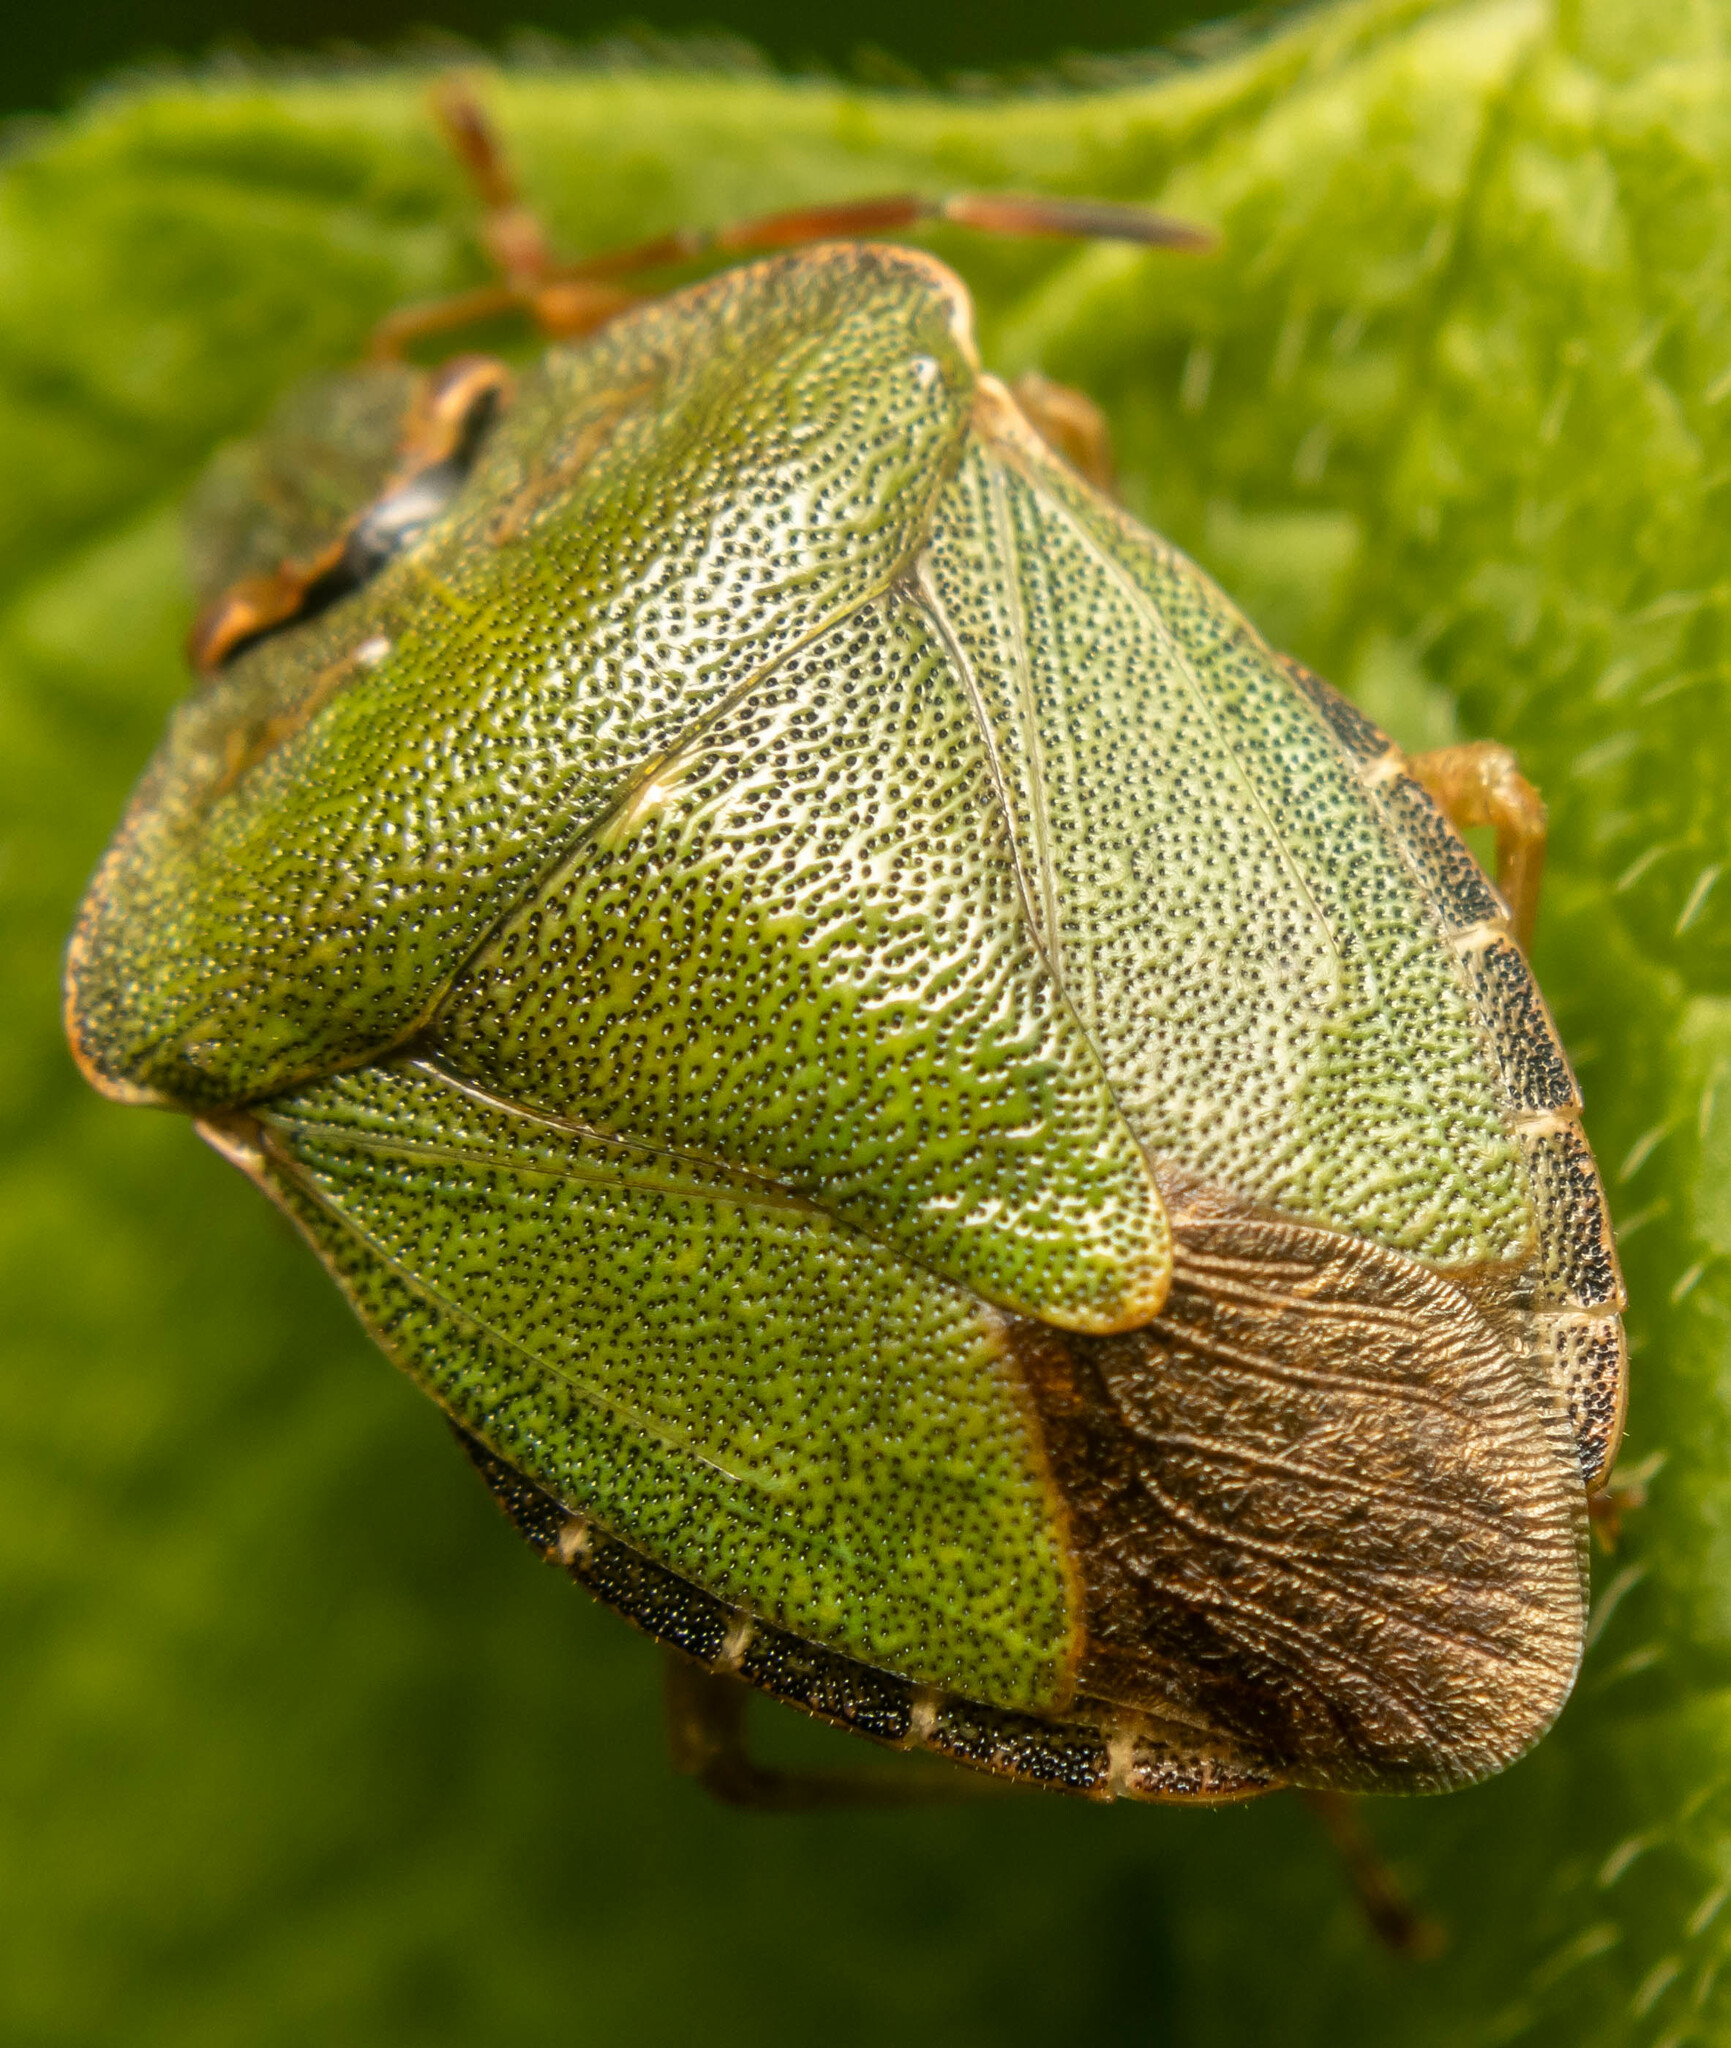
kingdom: Animalia
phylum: Arthropoda
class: Insecta
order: Hemiptera
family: Pentatomidae
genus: Palomena
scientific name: Palomena prasina
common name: Green shieldbug
